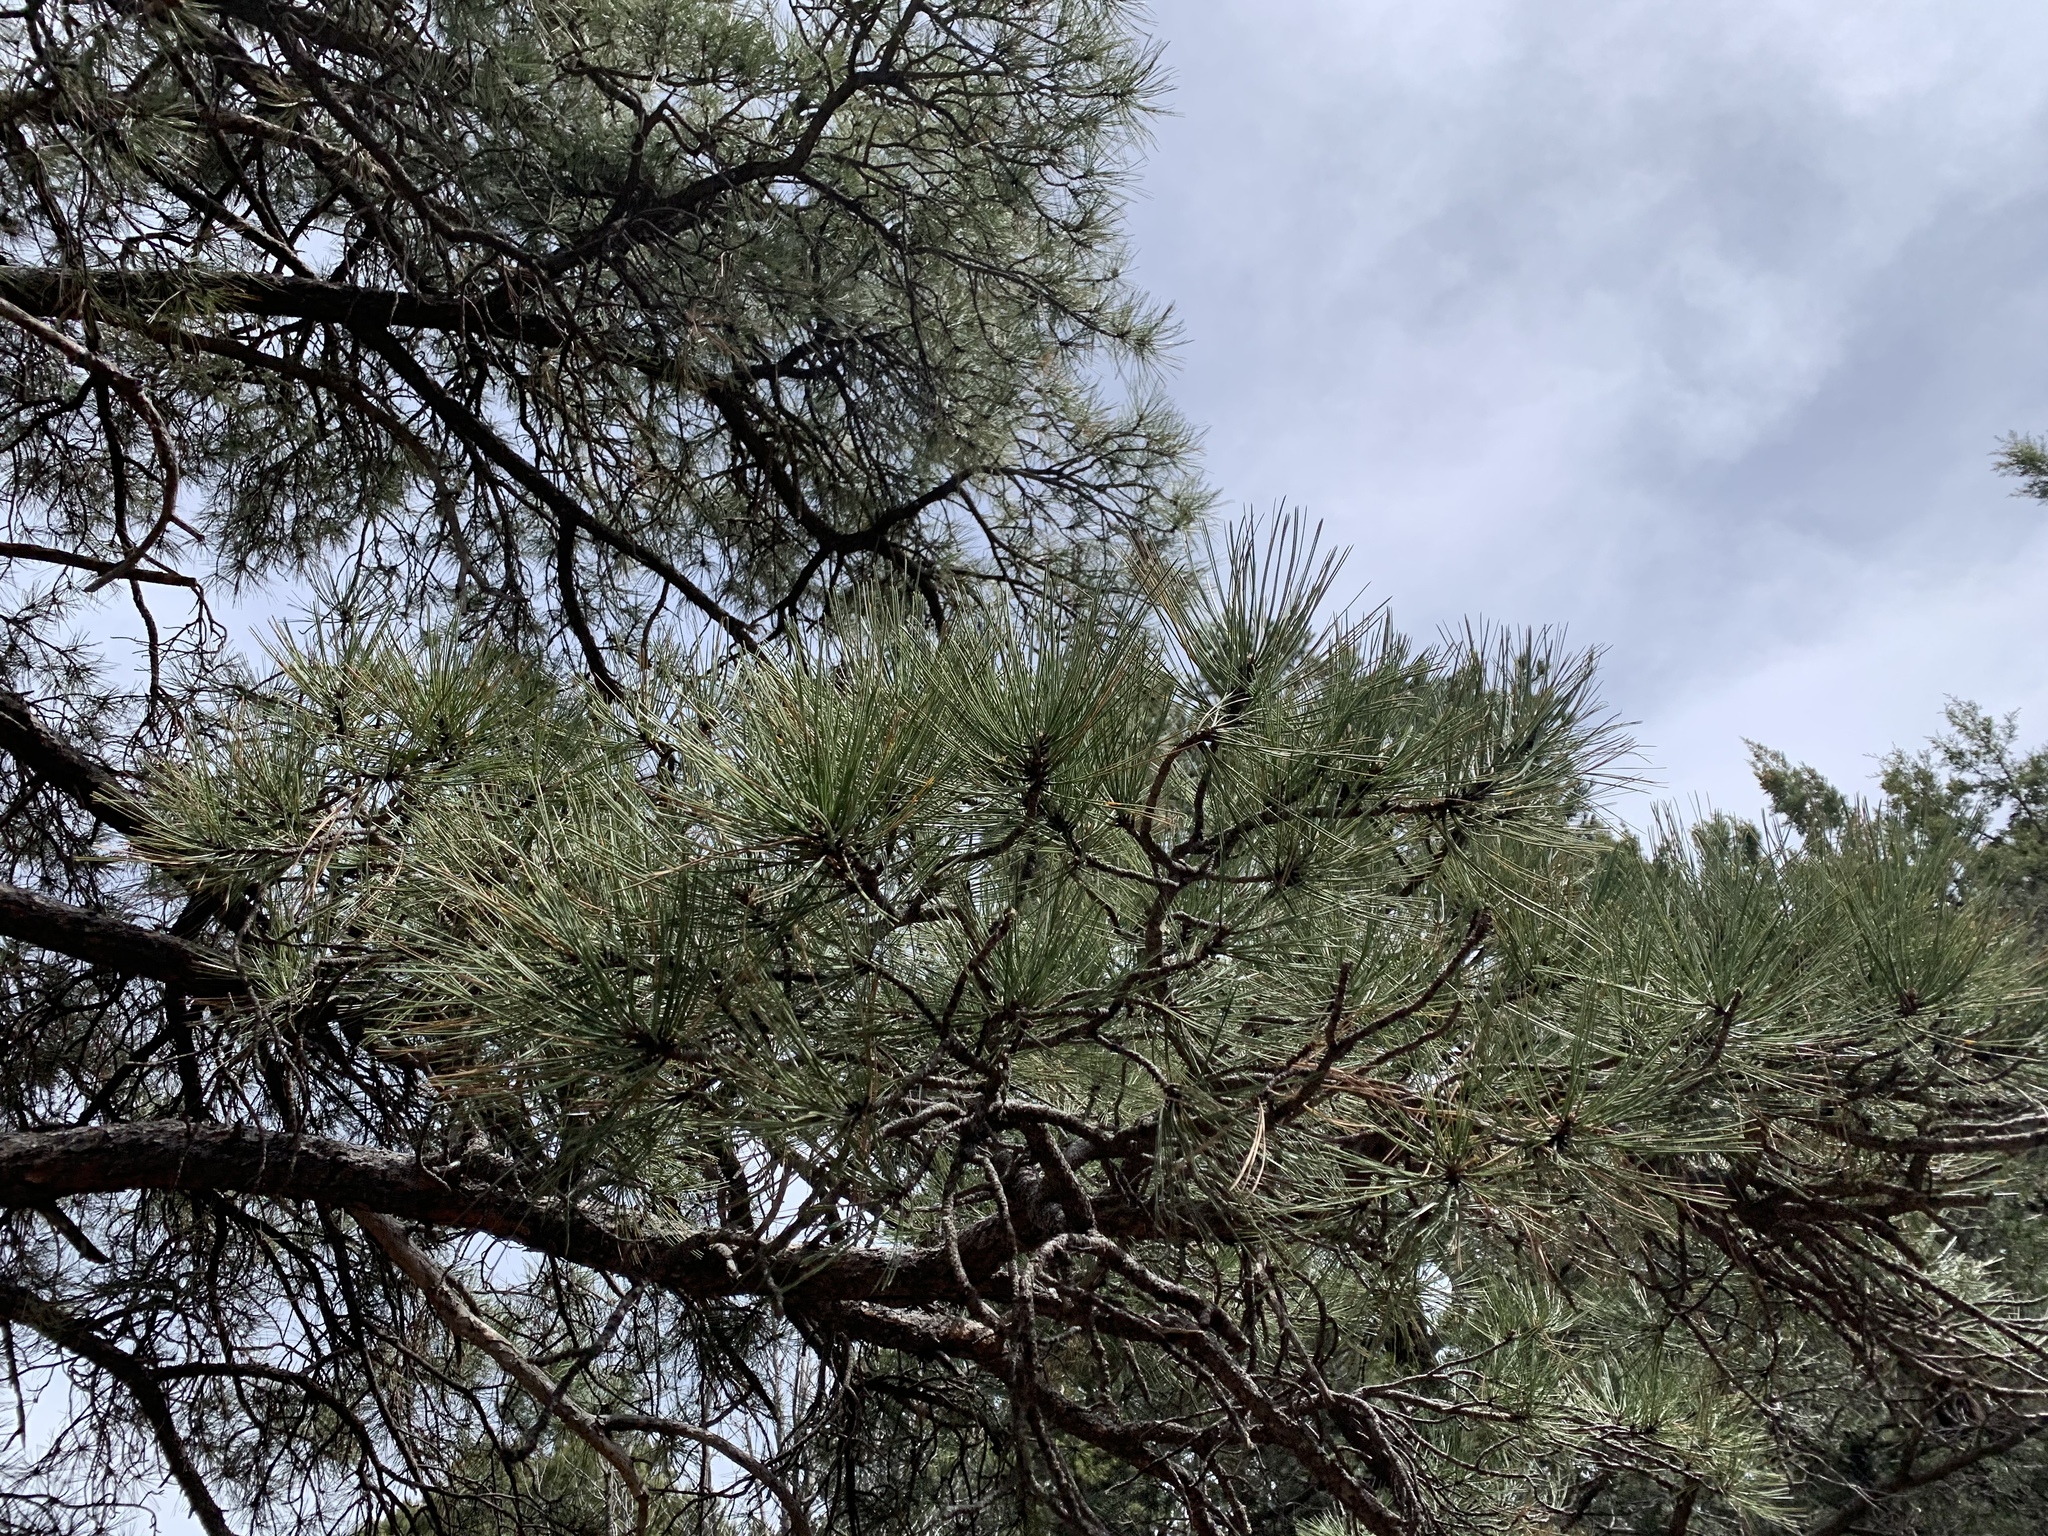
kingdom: Plantae
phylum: Tracheophyta
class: Pinopsida
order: Pinales
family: Pinaceae
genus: Pinus
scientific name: Pinus ponderosa
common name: Western yellow-pine
